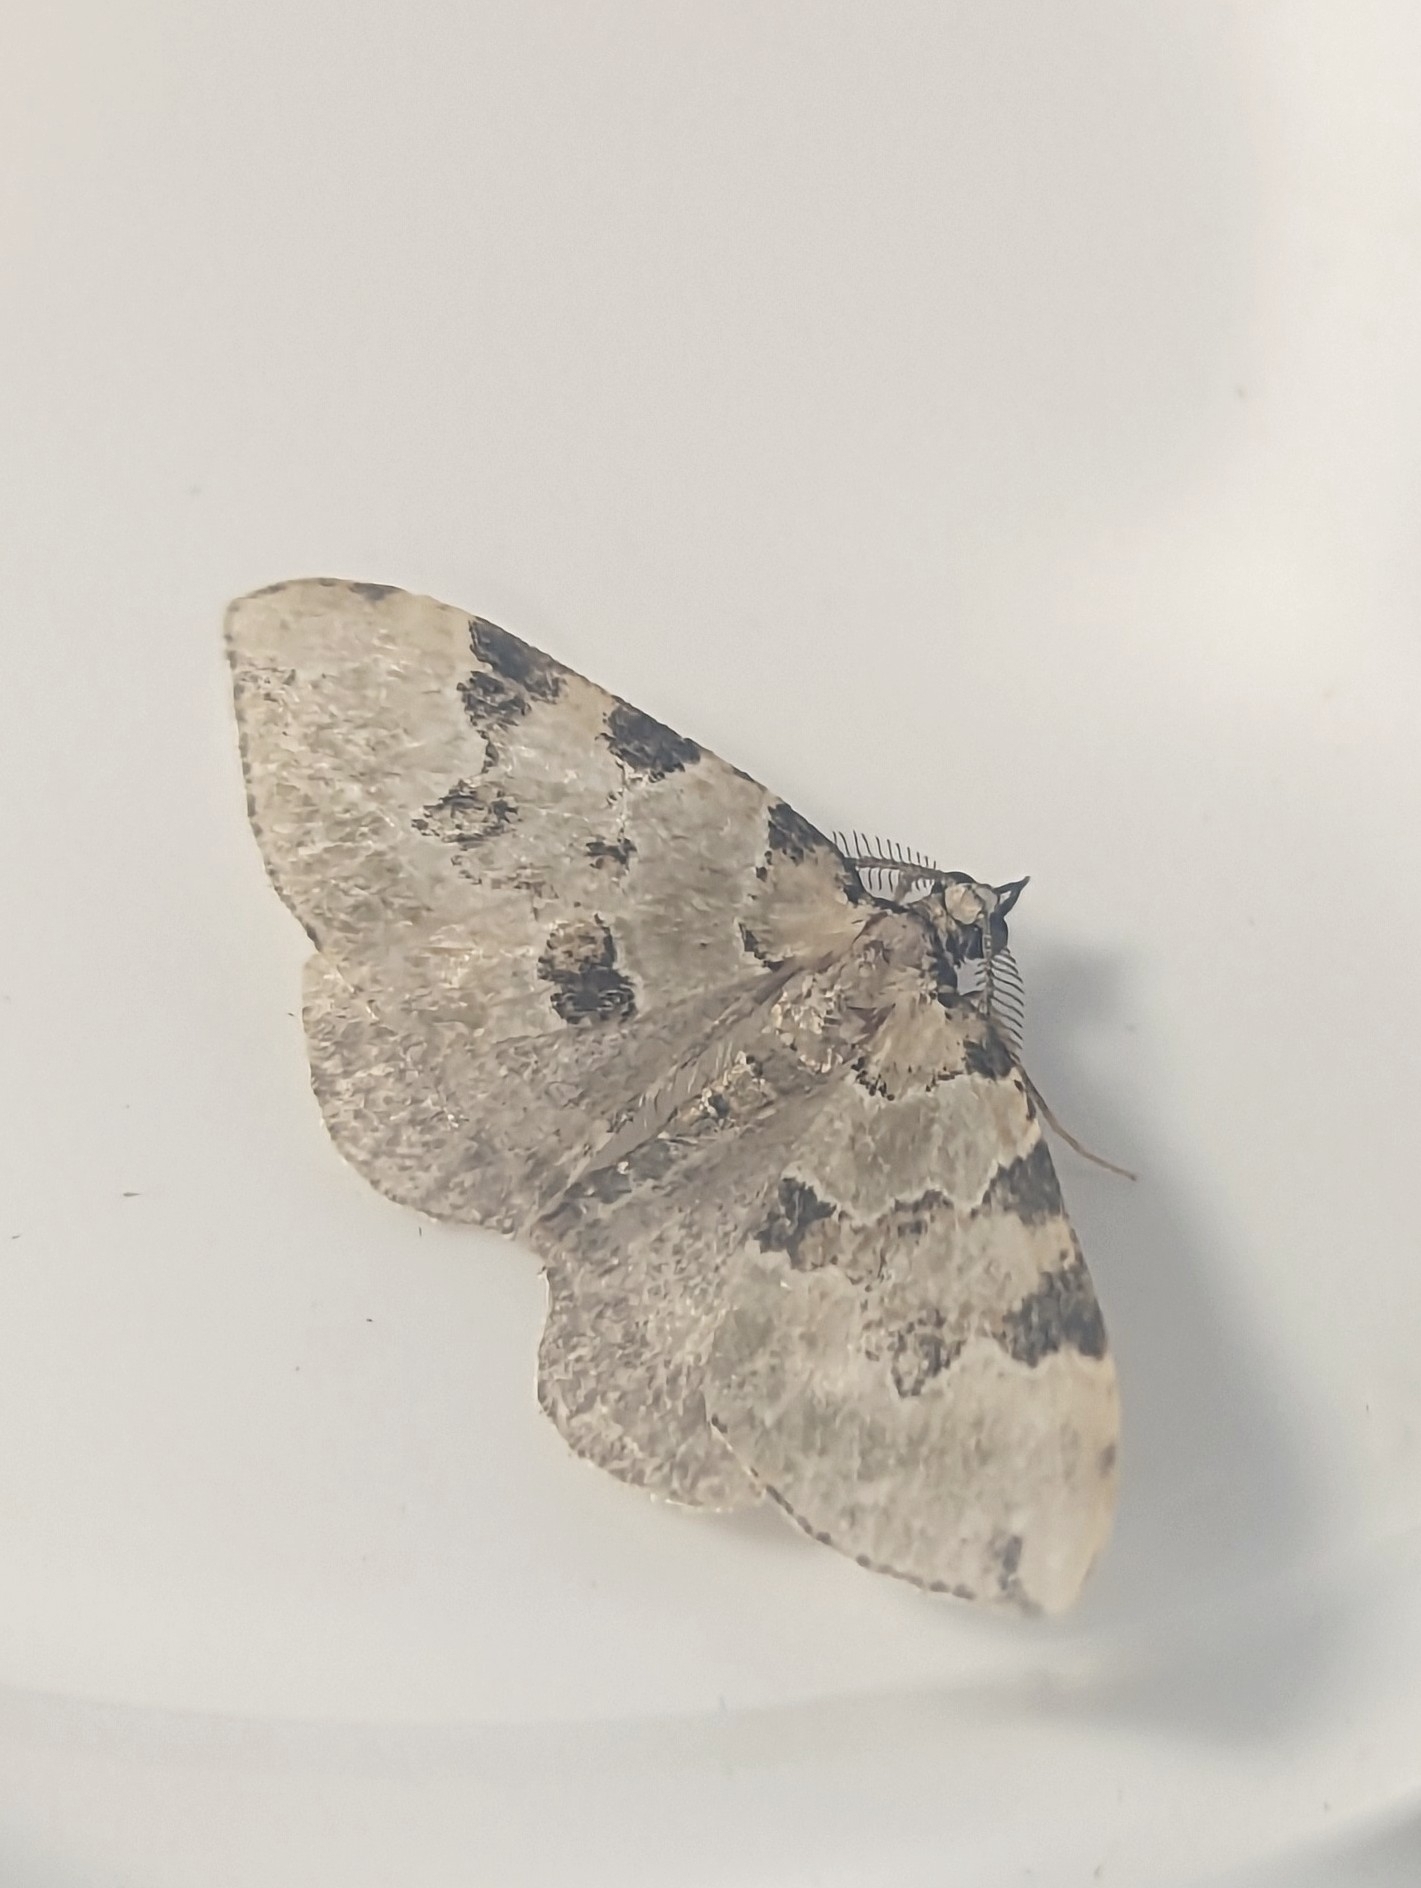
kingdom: Animalia
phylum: Arthropoda
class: Insecta
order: Lepidoptera
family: Geometridae
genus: Colostygia
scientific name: Colostygia pectinataria
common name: Green carpet
